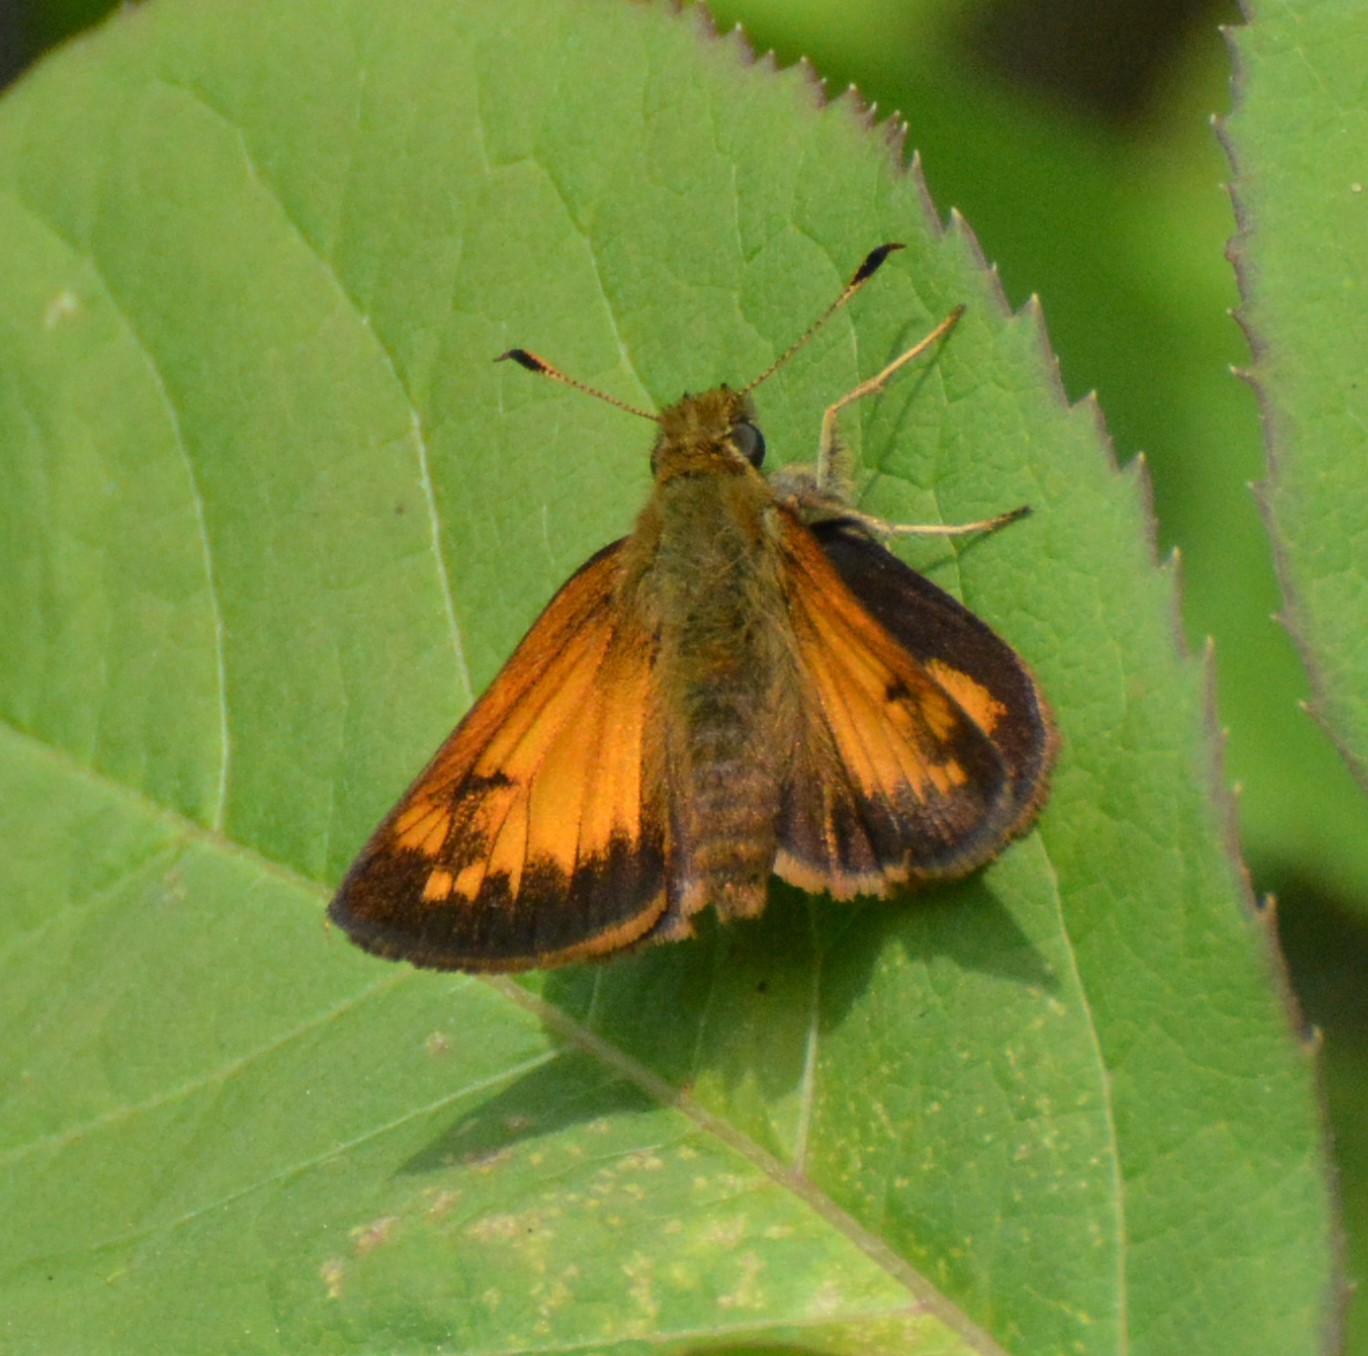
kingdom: Animalia
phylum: Arthropoda
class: Insecta
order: Lepidoptera
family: Hesperiidae
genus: Lon
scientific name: Lon hobomok
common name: Hobomok skipper
